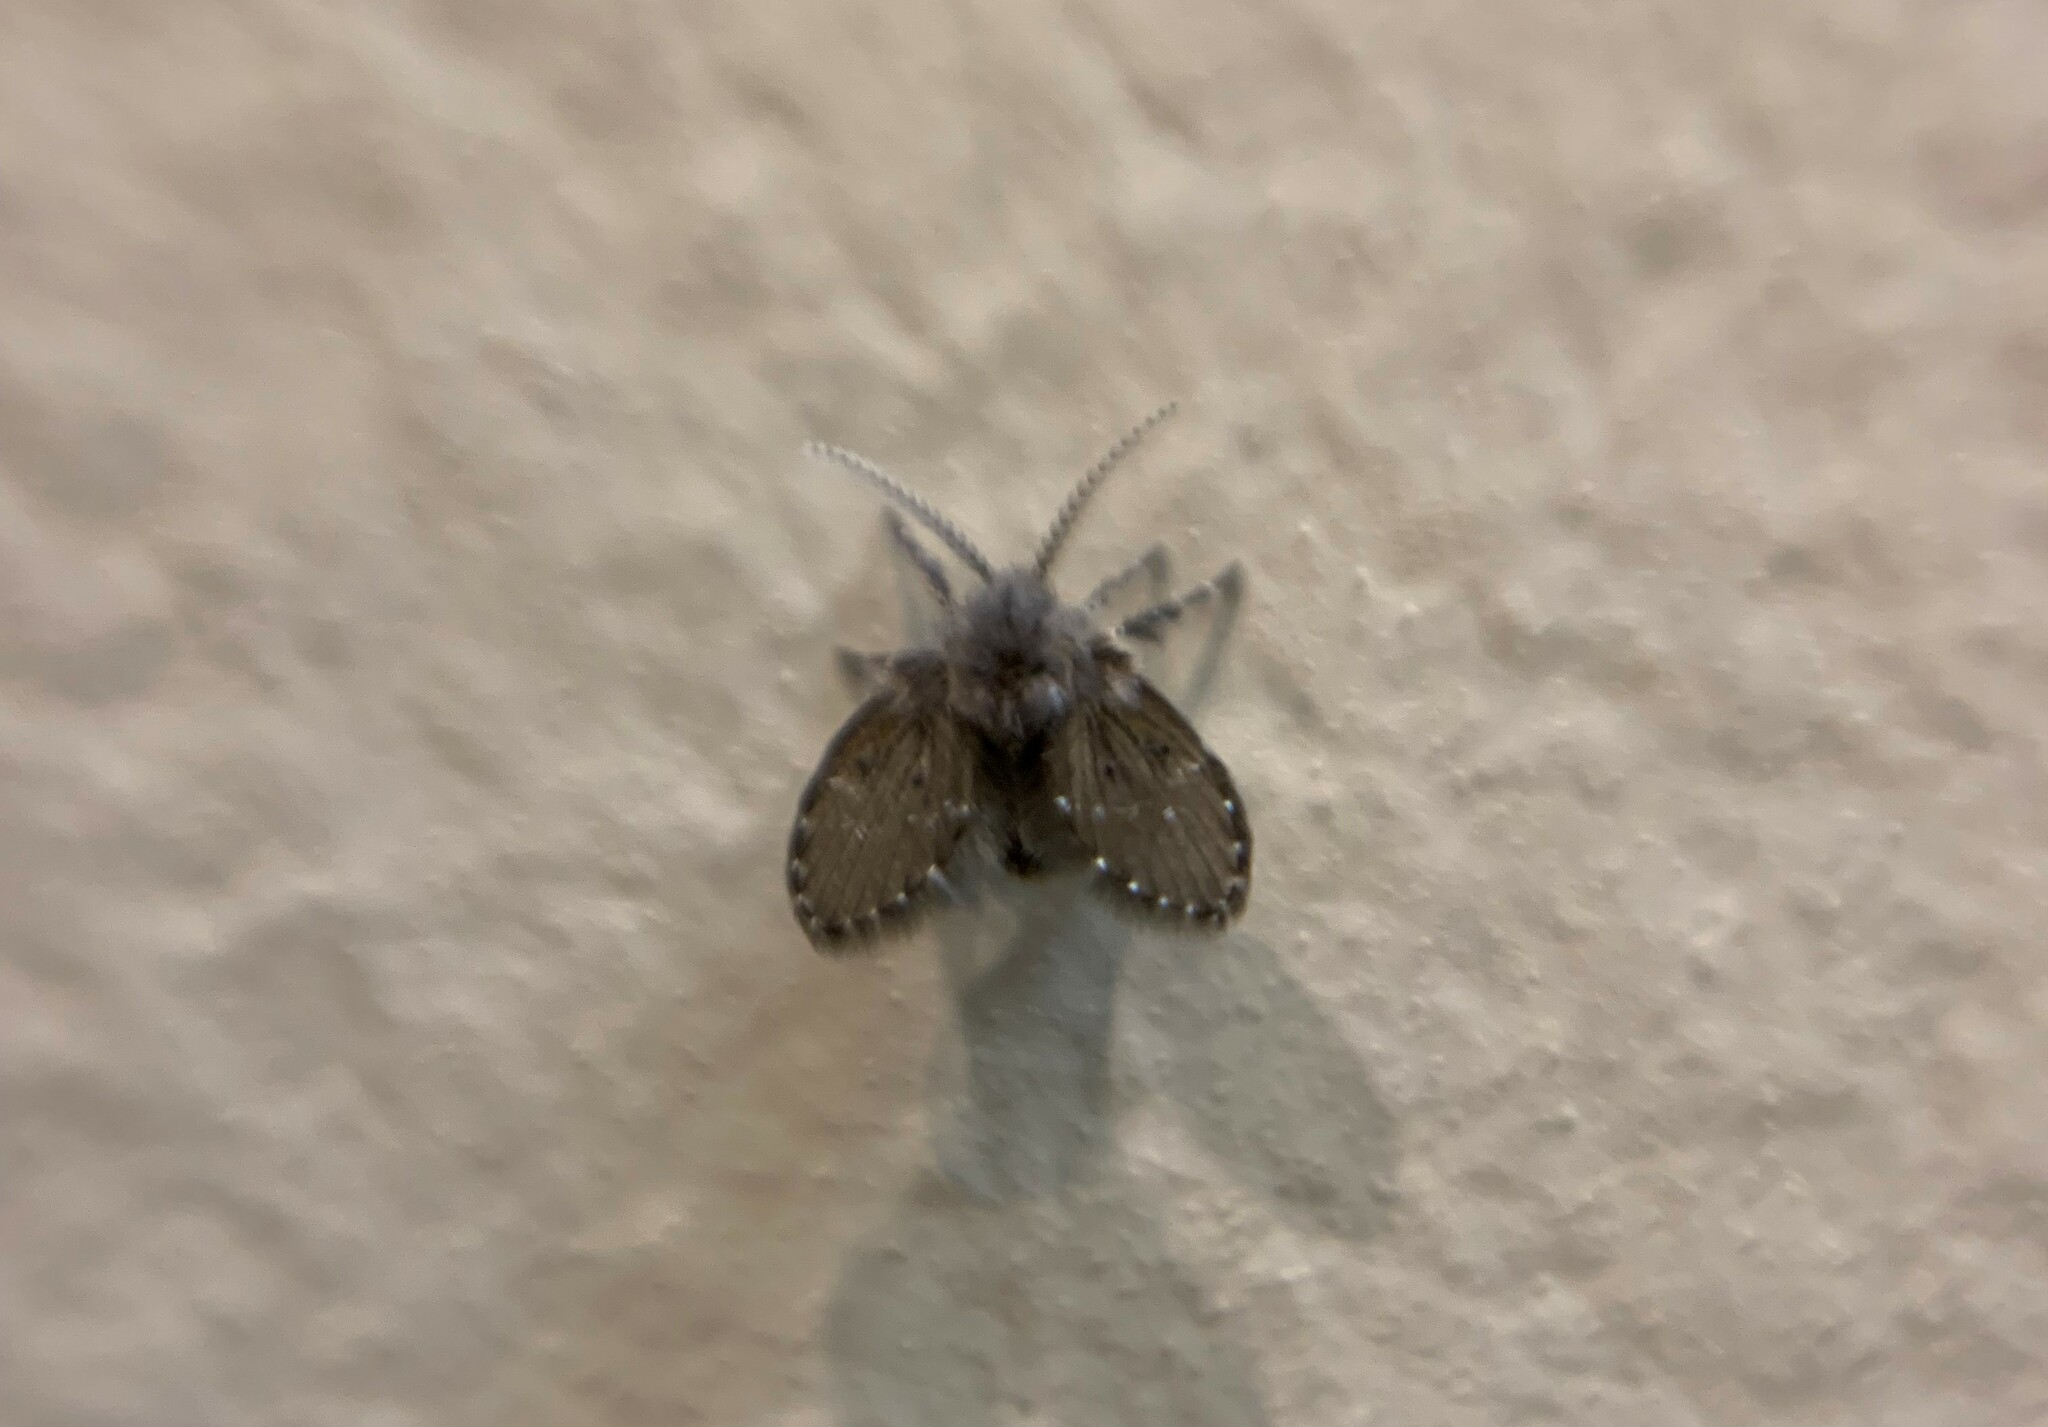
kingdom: Animalia
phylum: Arthropoda
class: Insecta
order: Diptera
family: Psychodidae
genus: Clogmia
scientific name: Clogmia albipunctatus
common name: White-spotted moth fly
